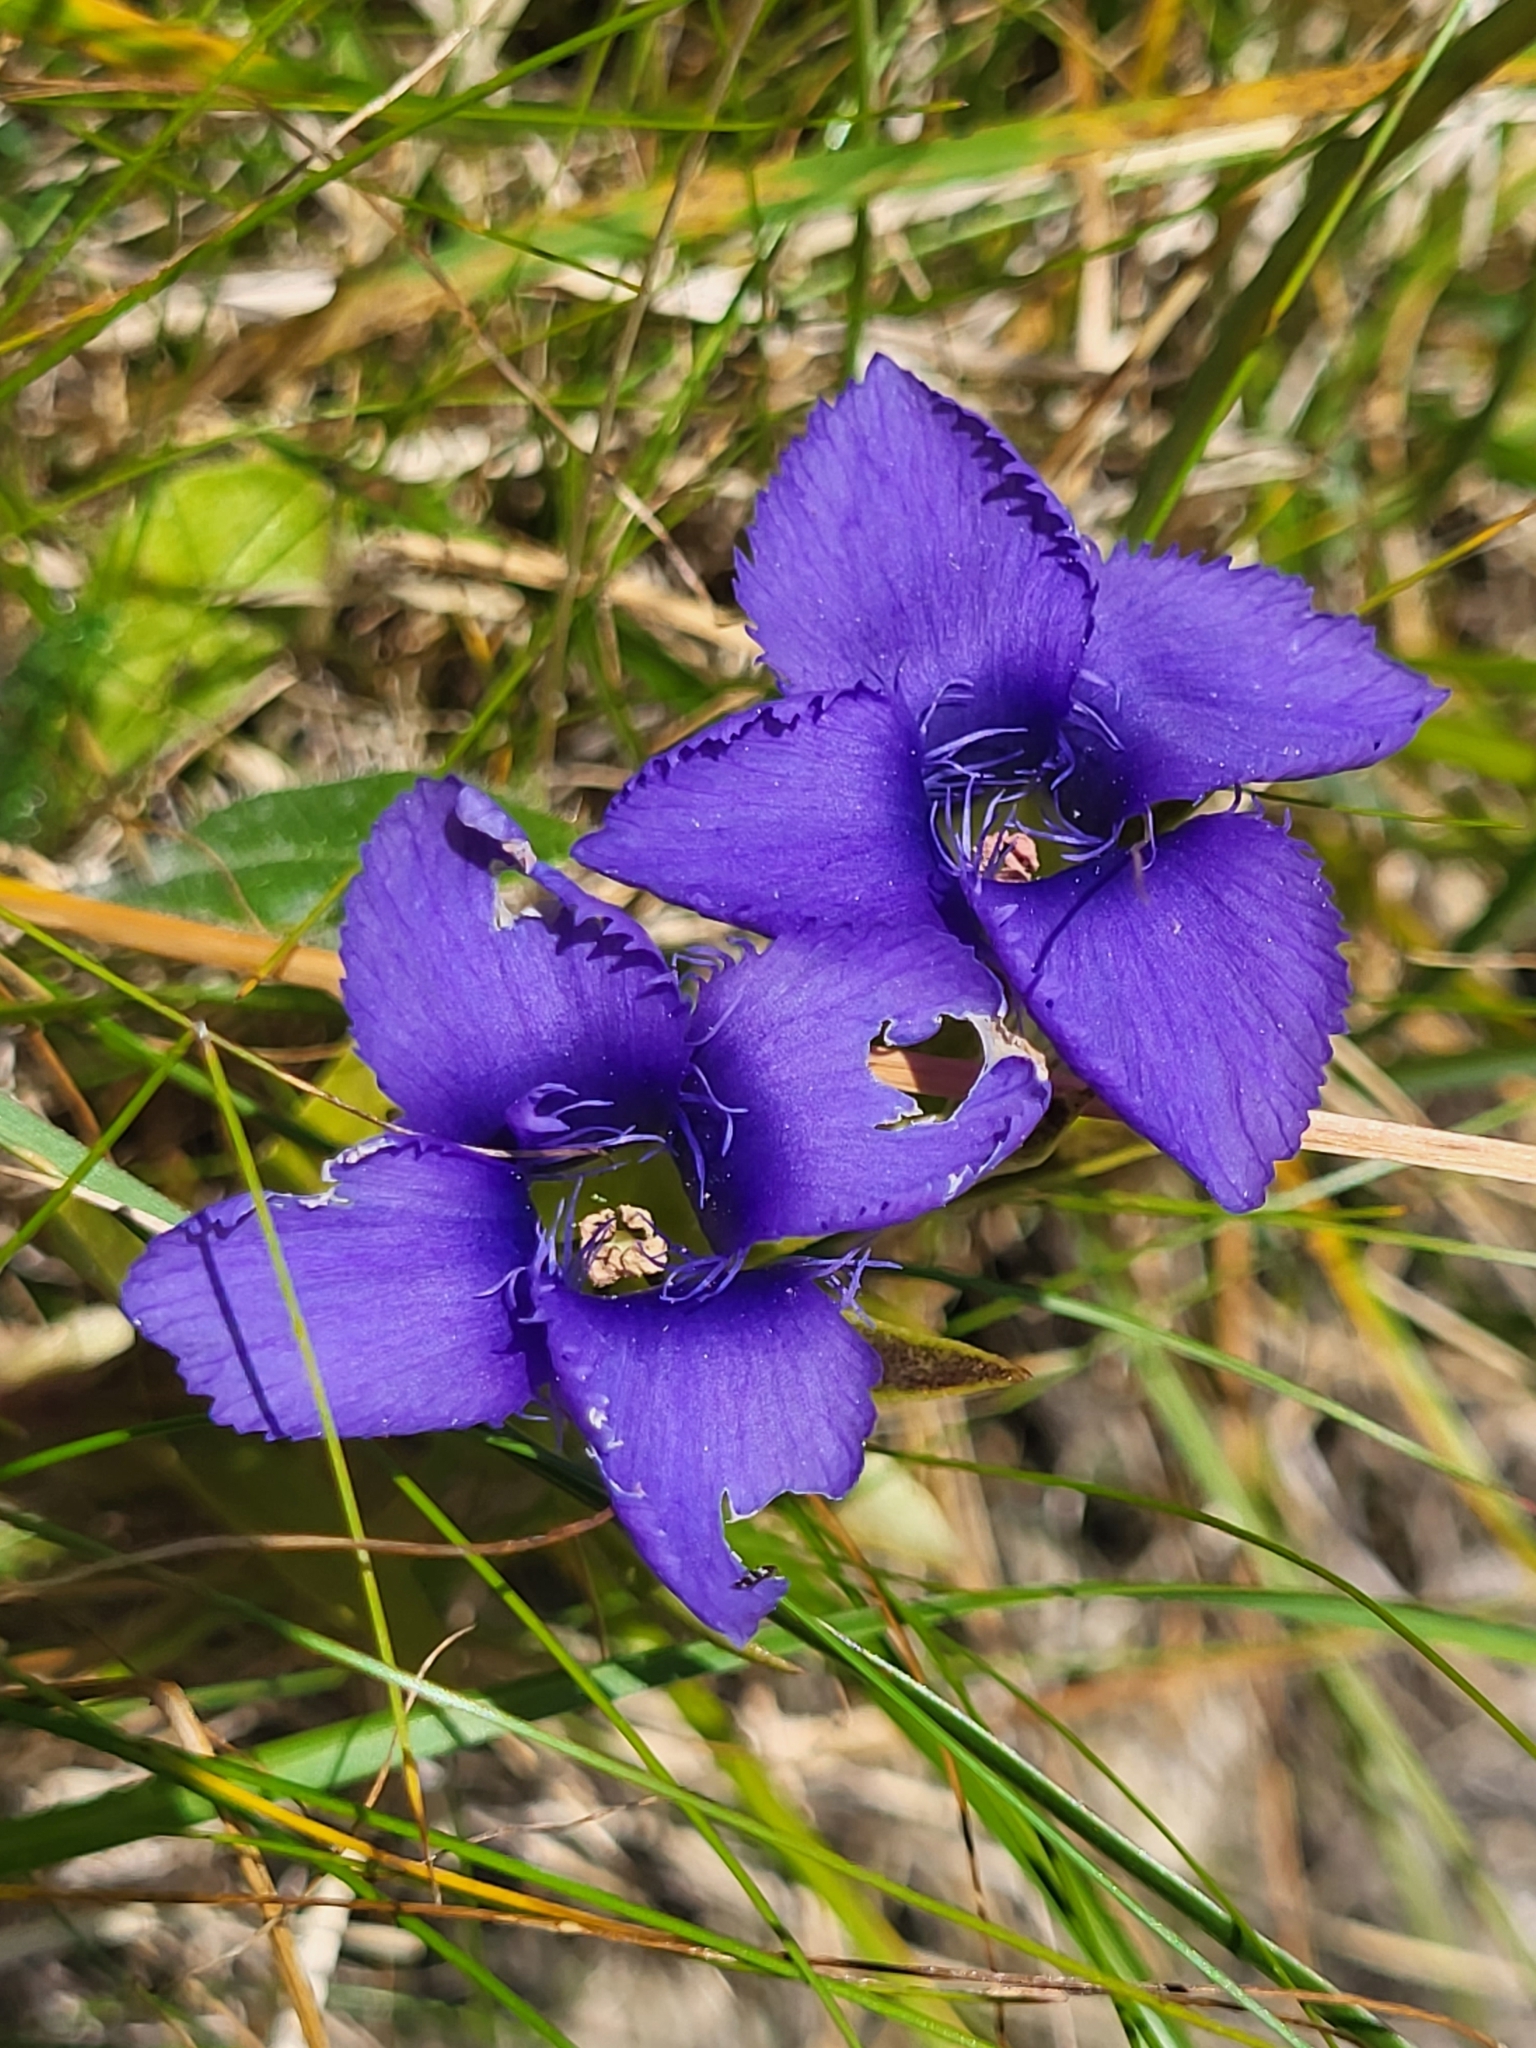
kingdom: Plantae
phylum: Tracheophyta
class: Magnoliopsida
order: Gentianales
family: Gentianaceae
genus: Gentianopsis
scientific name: Gentianopsis ciliata
